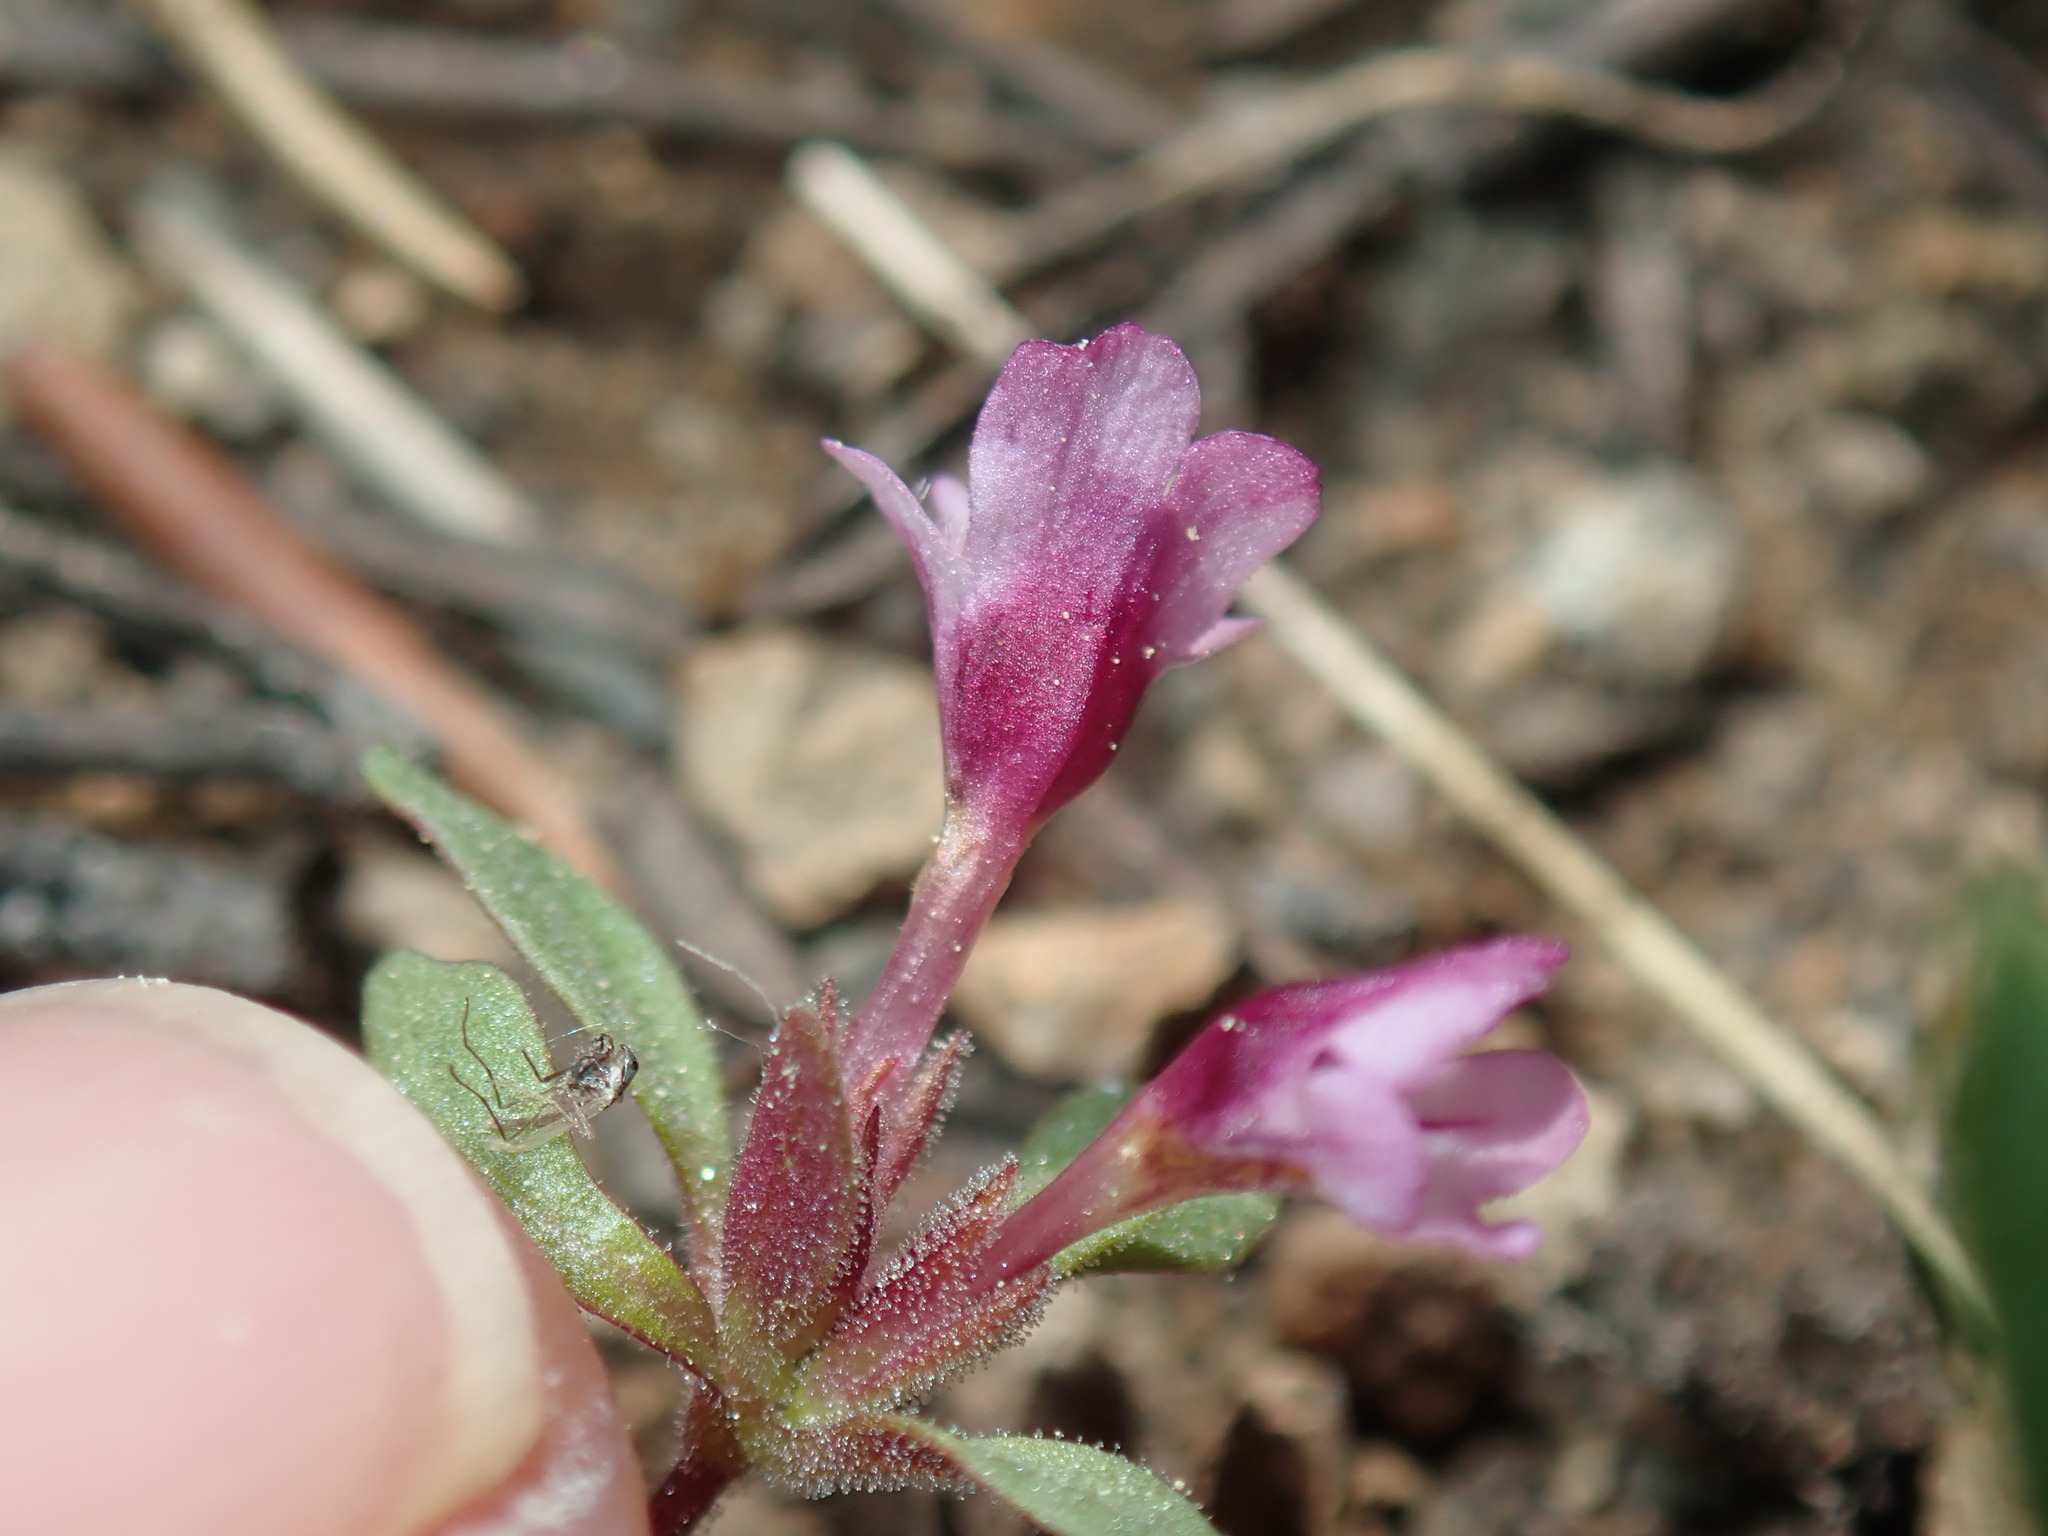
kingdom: Plantae
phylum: Tracheophyta
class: Magnoliopsida
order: Lamiales
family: Phrymaceae
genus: Diplacus
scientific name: Diplacus jepsonii
